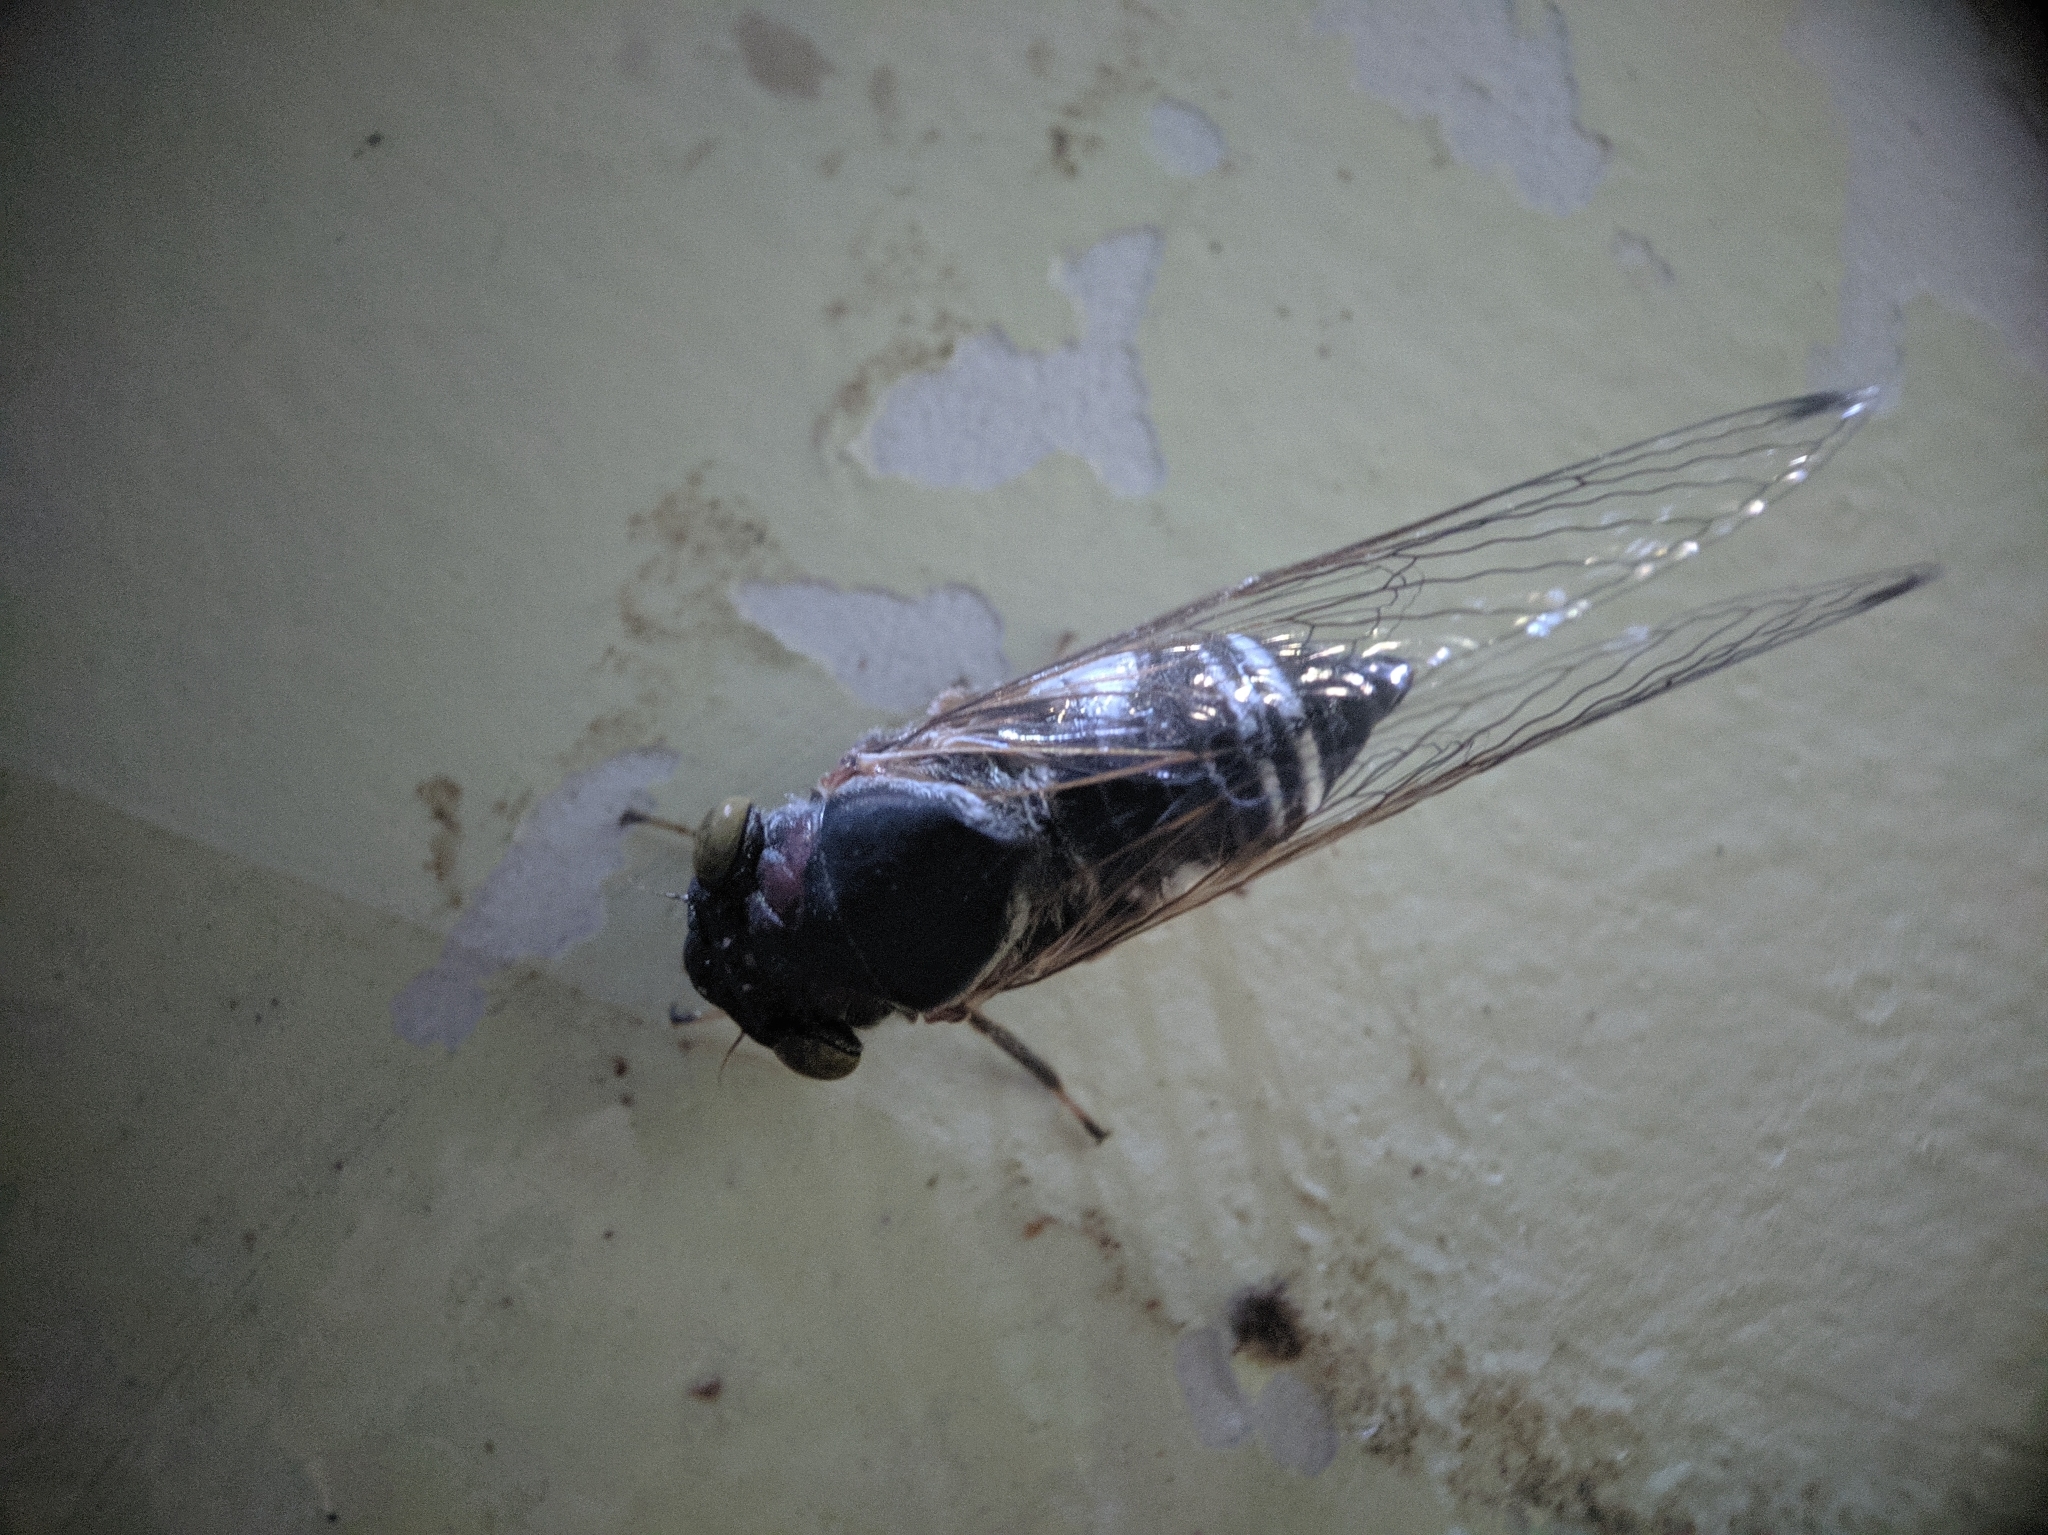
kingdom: Animalia
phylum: Arthropoda
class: Insecta
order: Hemiptera
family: Cicadidae
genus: Lemuriana
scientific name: Lemuriana apicalis
